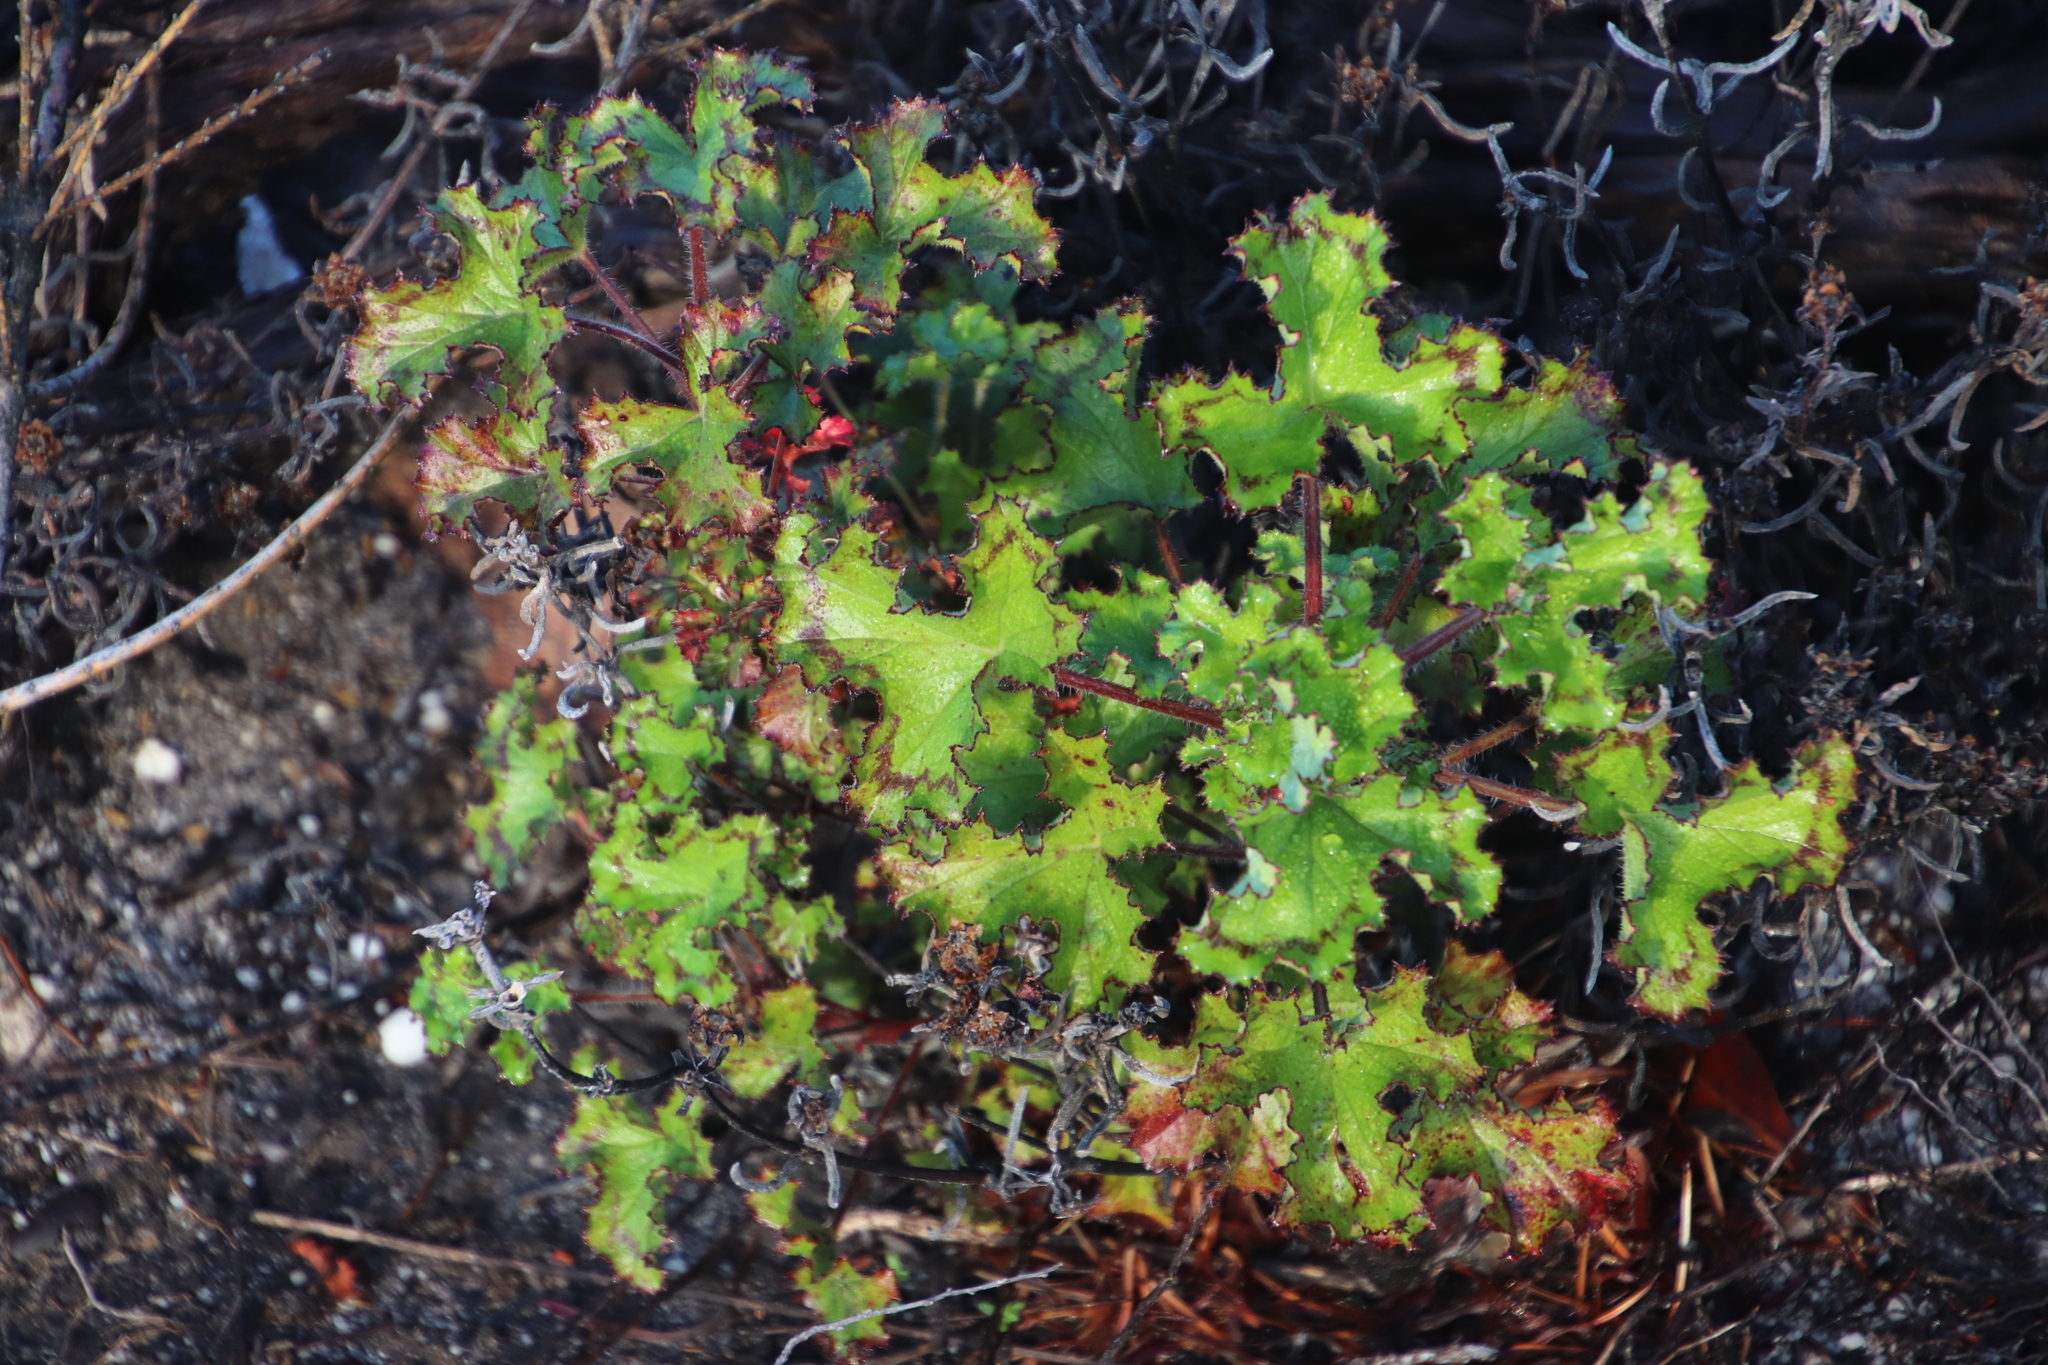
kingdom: Plantae
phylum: Tracheophyta
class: Magnoliopsida
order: Geraniales
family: Geraniaceae
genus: Pelargonium
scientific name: Pelargonium sublignosum
